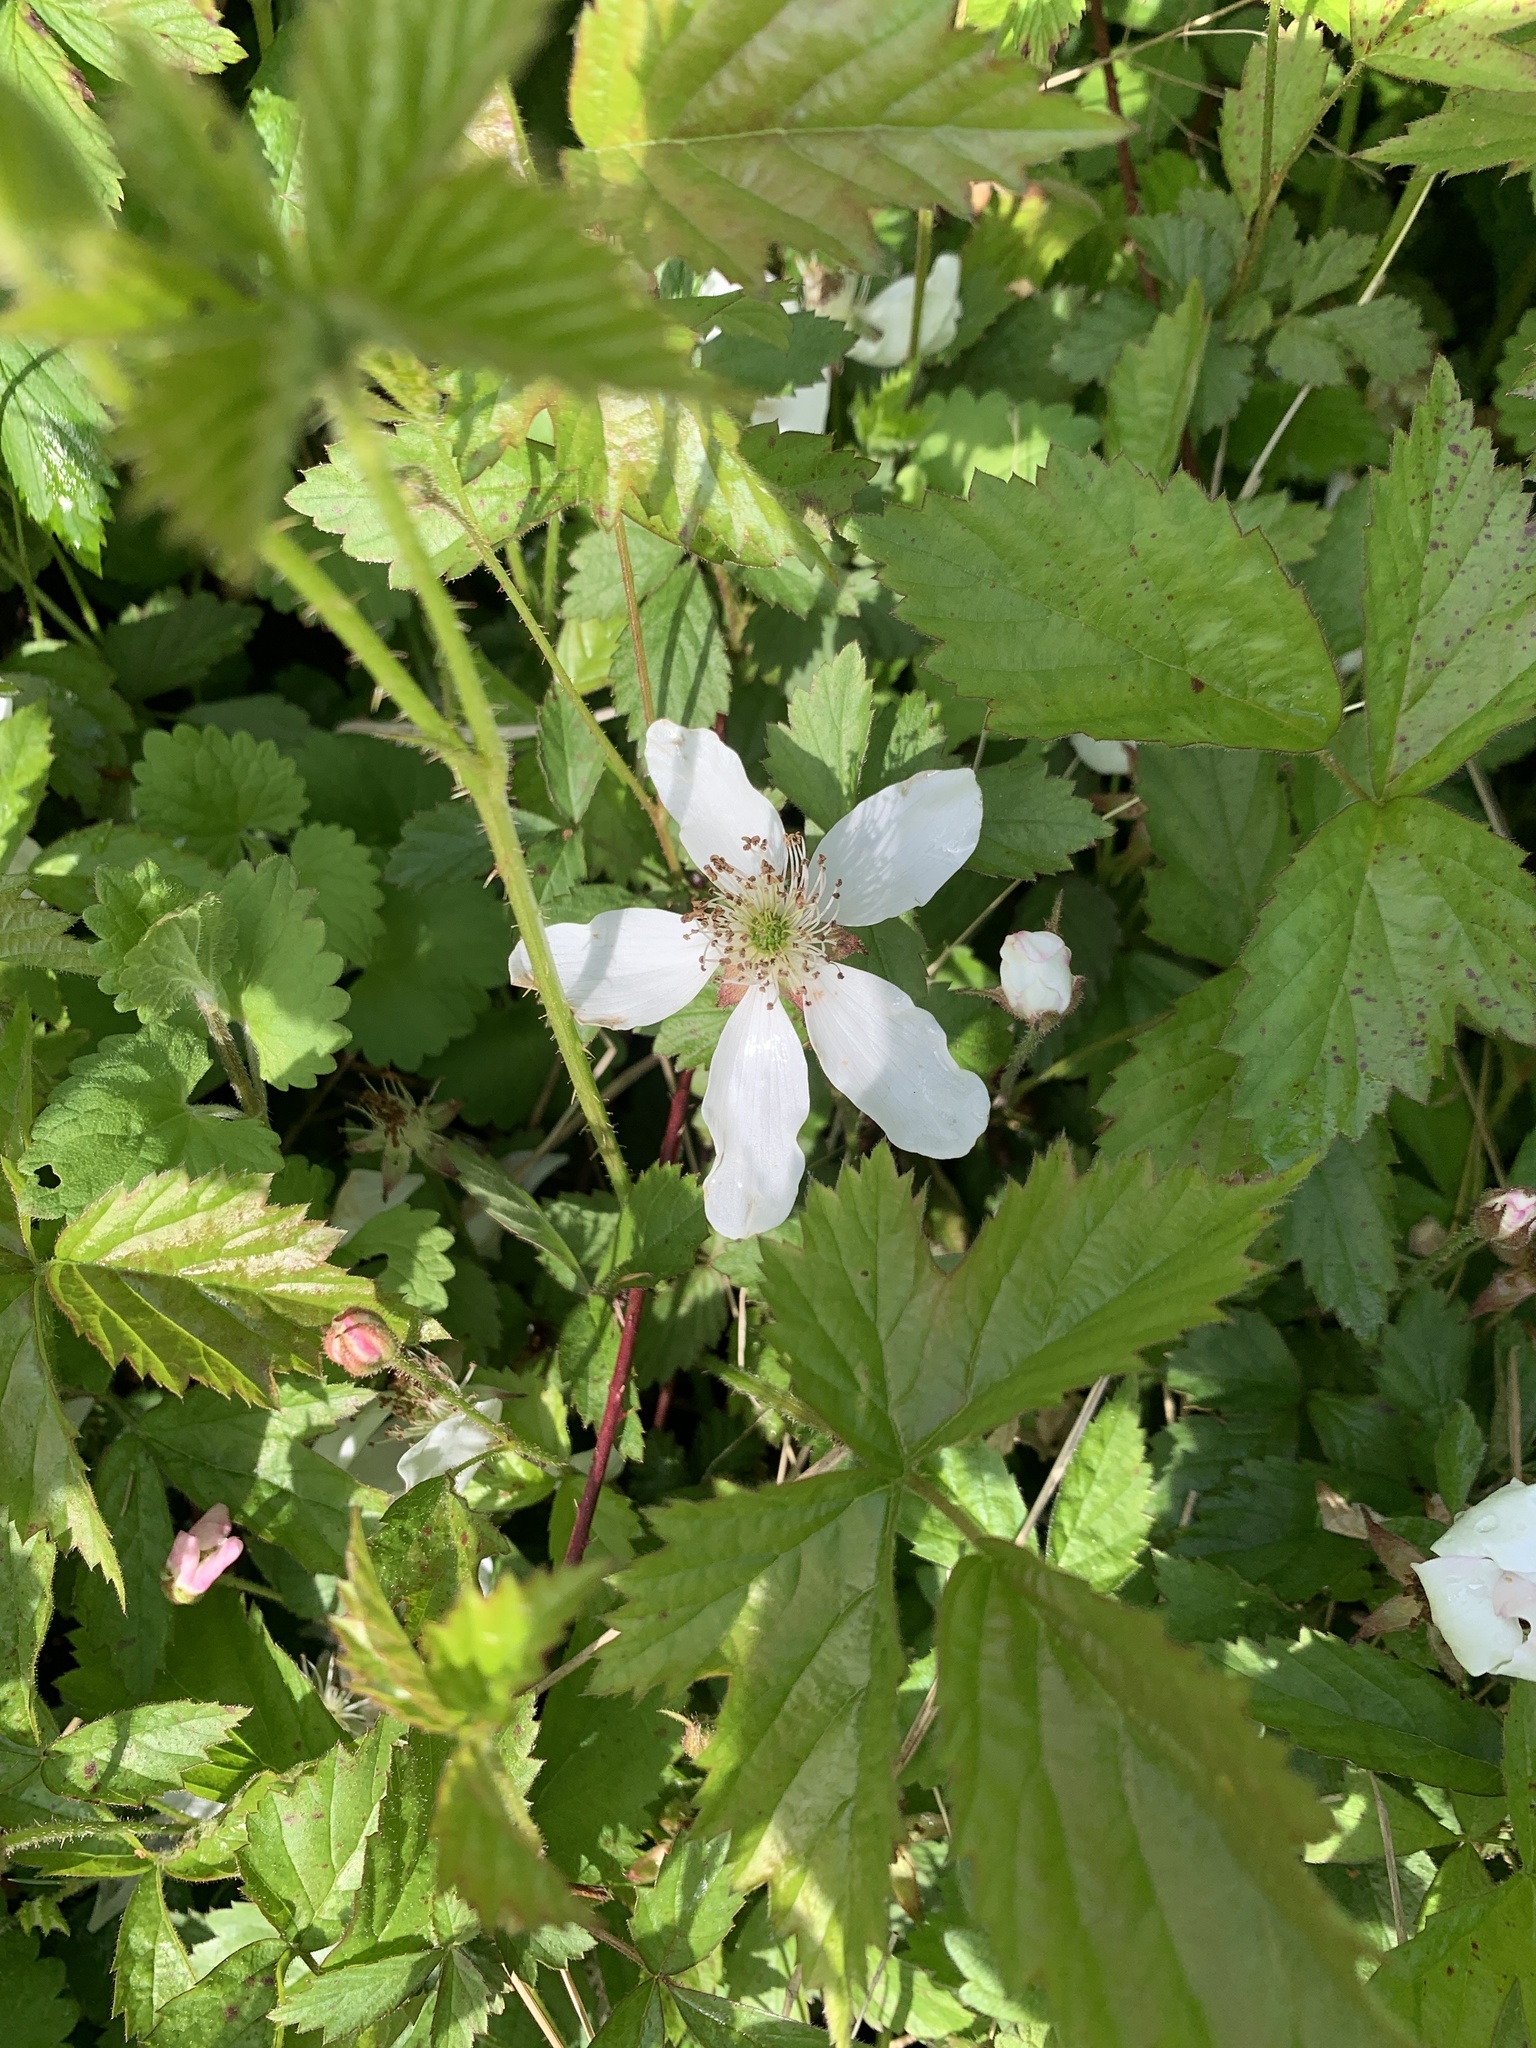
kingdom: Plantae
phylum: Tracheophyta
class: Magnoliopsida
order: Rosales
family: Rosaceae
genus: Rubus
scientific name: Rubus flagellaris
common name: American dewberry
